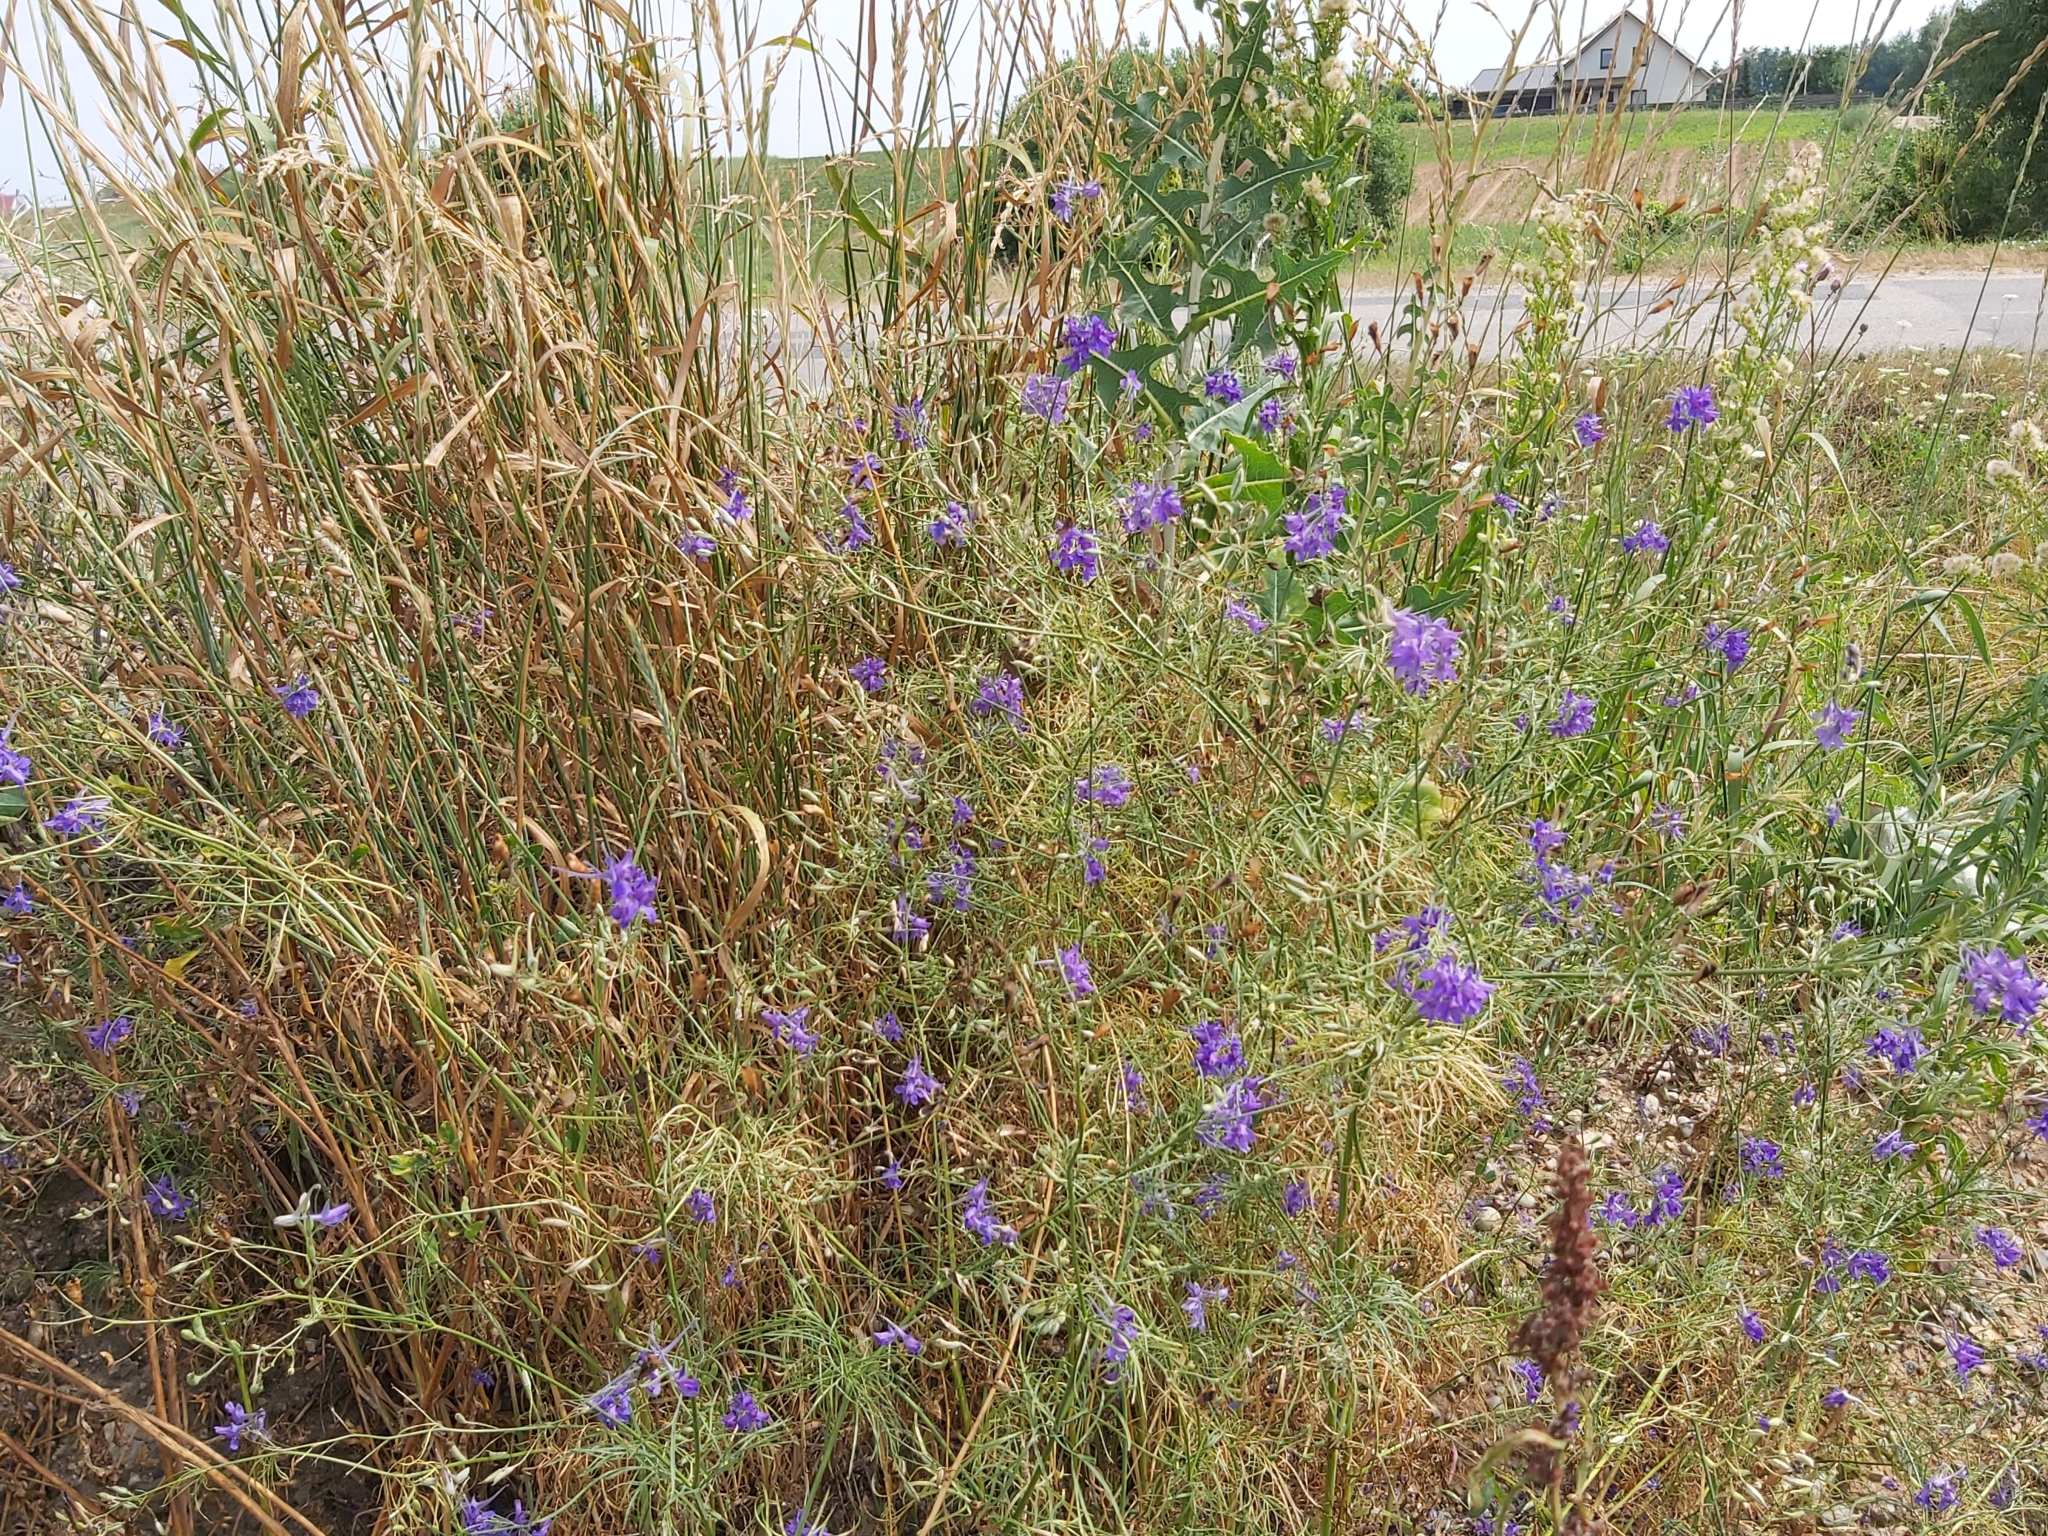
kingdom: Plantae
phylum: Tracheophyta
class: Magnoliopsida
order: Ranunculales
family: Ranunculaceae
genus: Delphinium
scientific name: Delphinium consolida
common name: Branching larkspur
